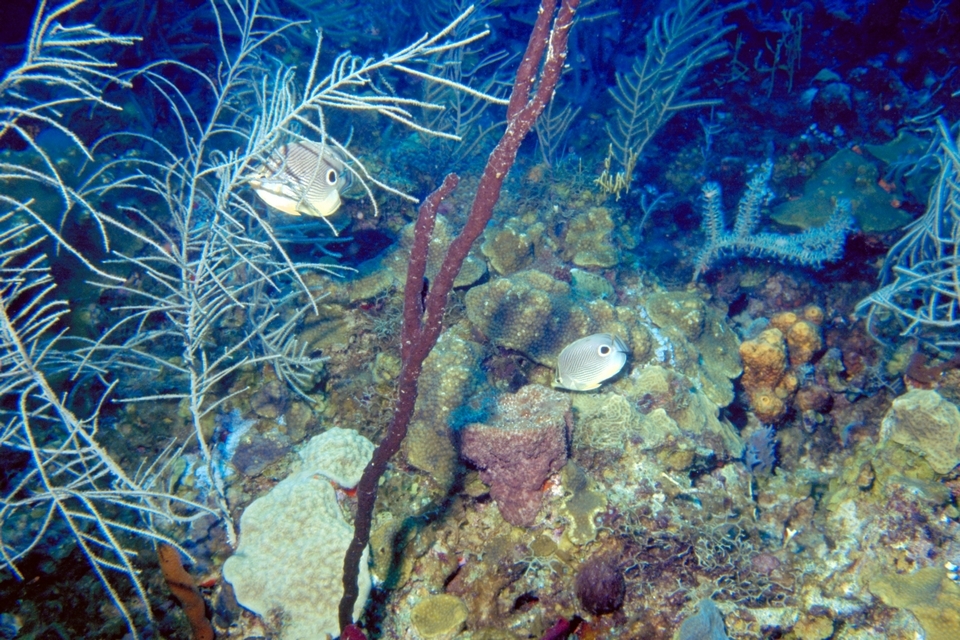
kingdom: Animalia
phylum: Chordata
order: Perciformes
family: Chaetodontidae
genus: Chaetodon
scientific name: Chaetodon capistratus
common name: Kete
